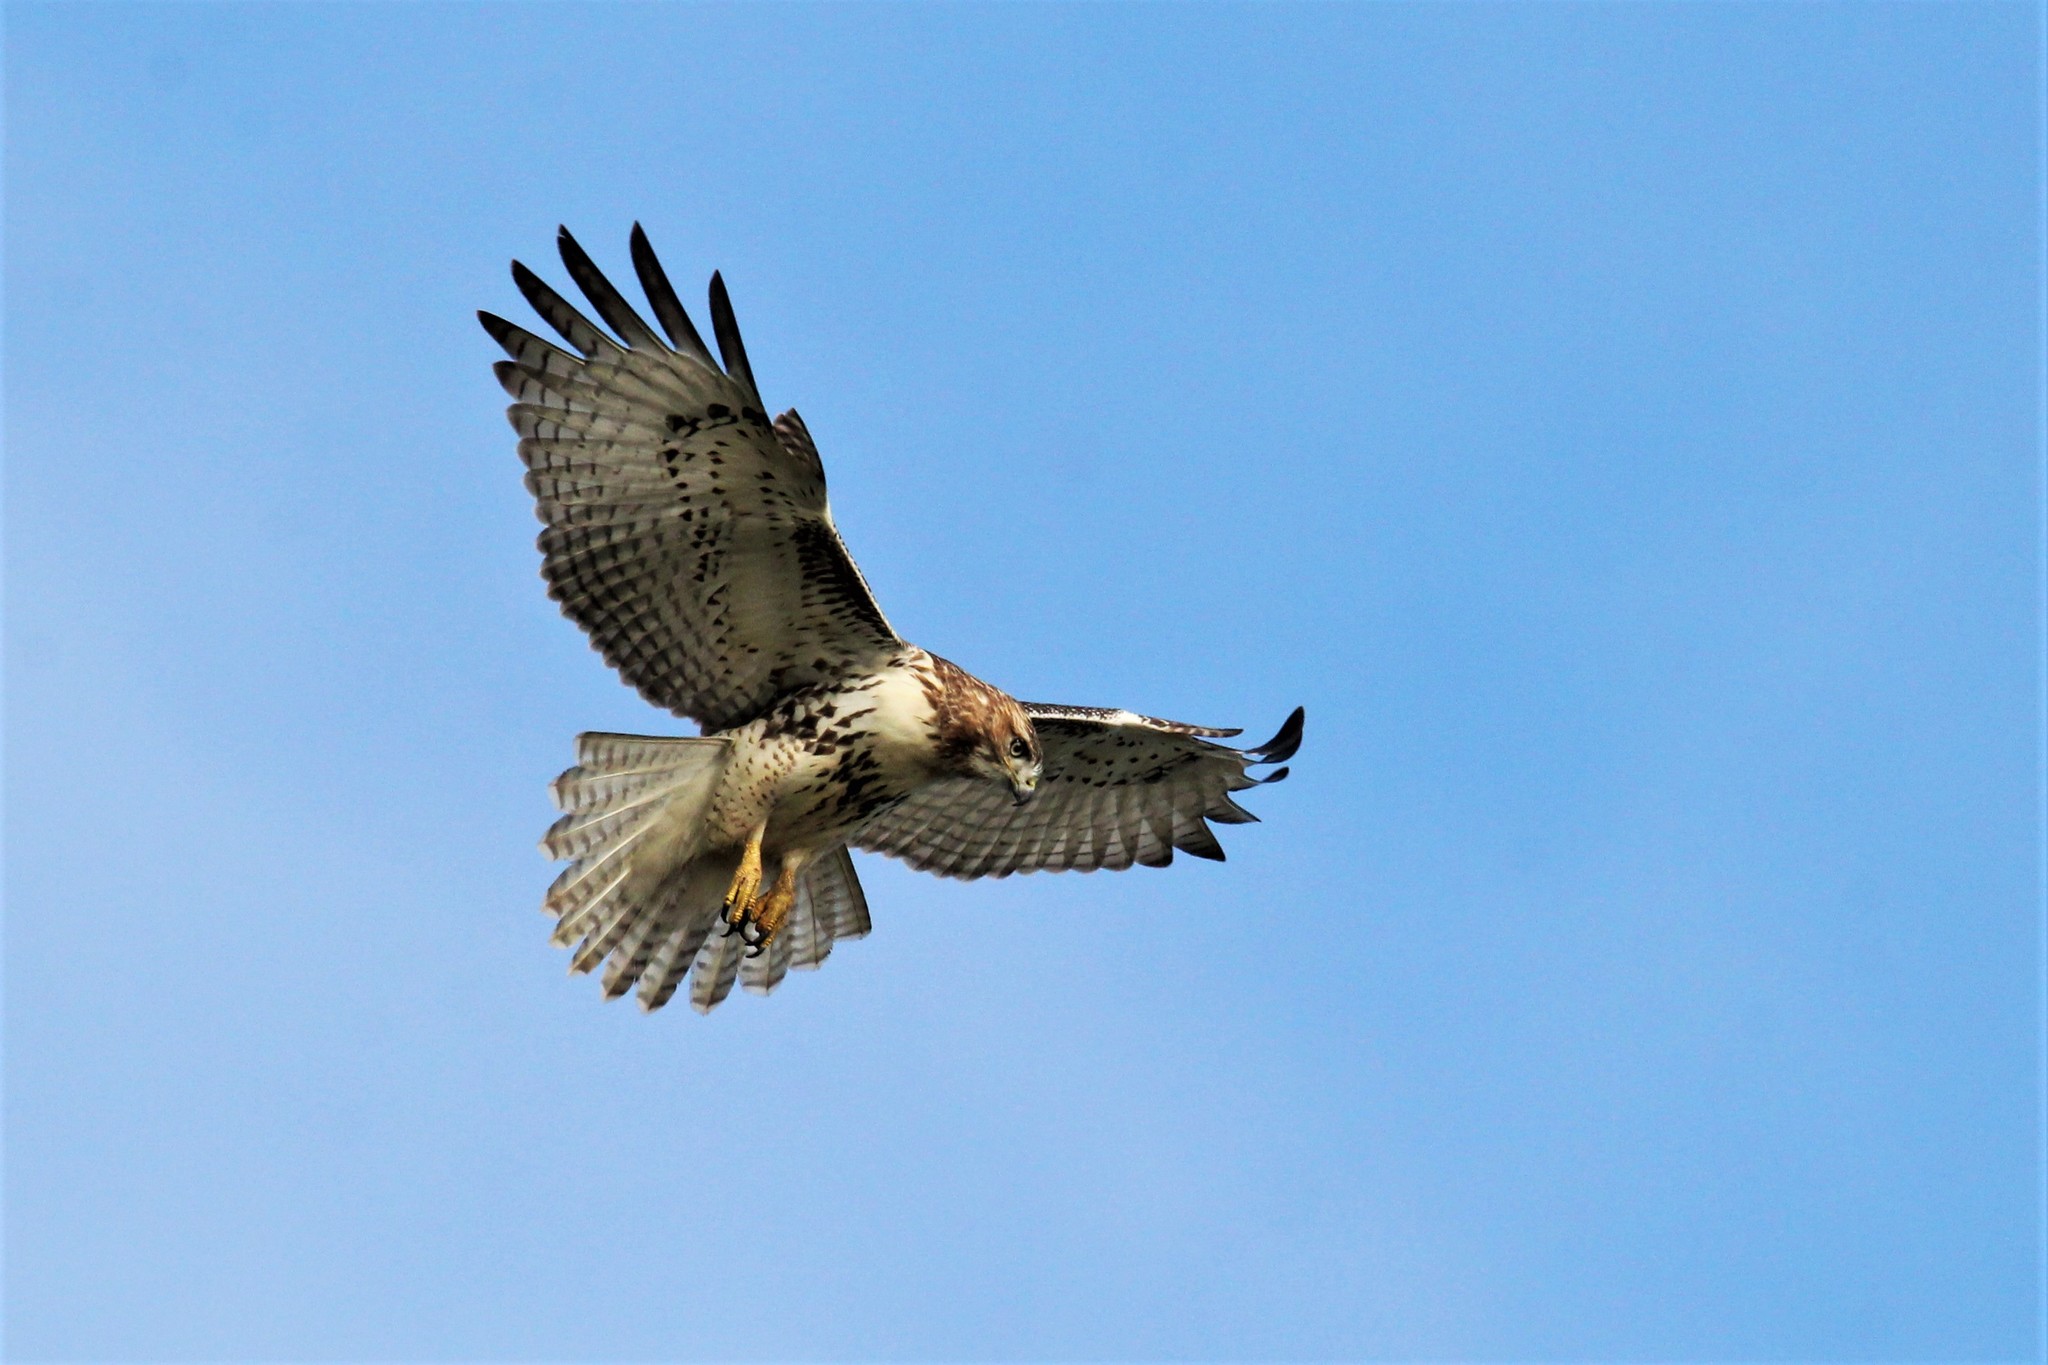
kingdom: Animalia
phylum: Chordata
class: Aves
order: Accipitriformes
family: Accipitridae
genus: Buteo
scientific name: Buteo jamaicensis
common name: Red-tailed hawk
